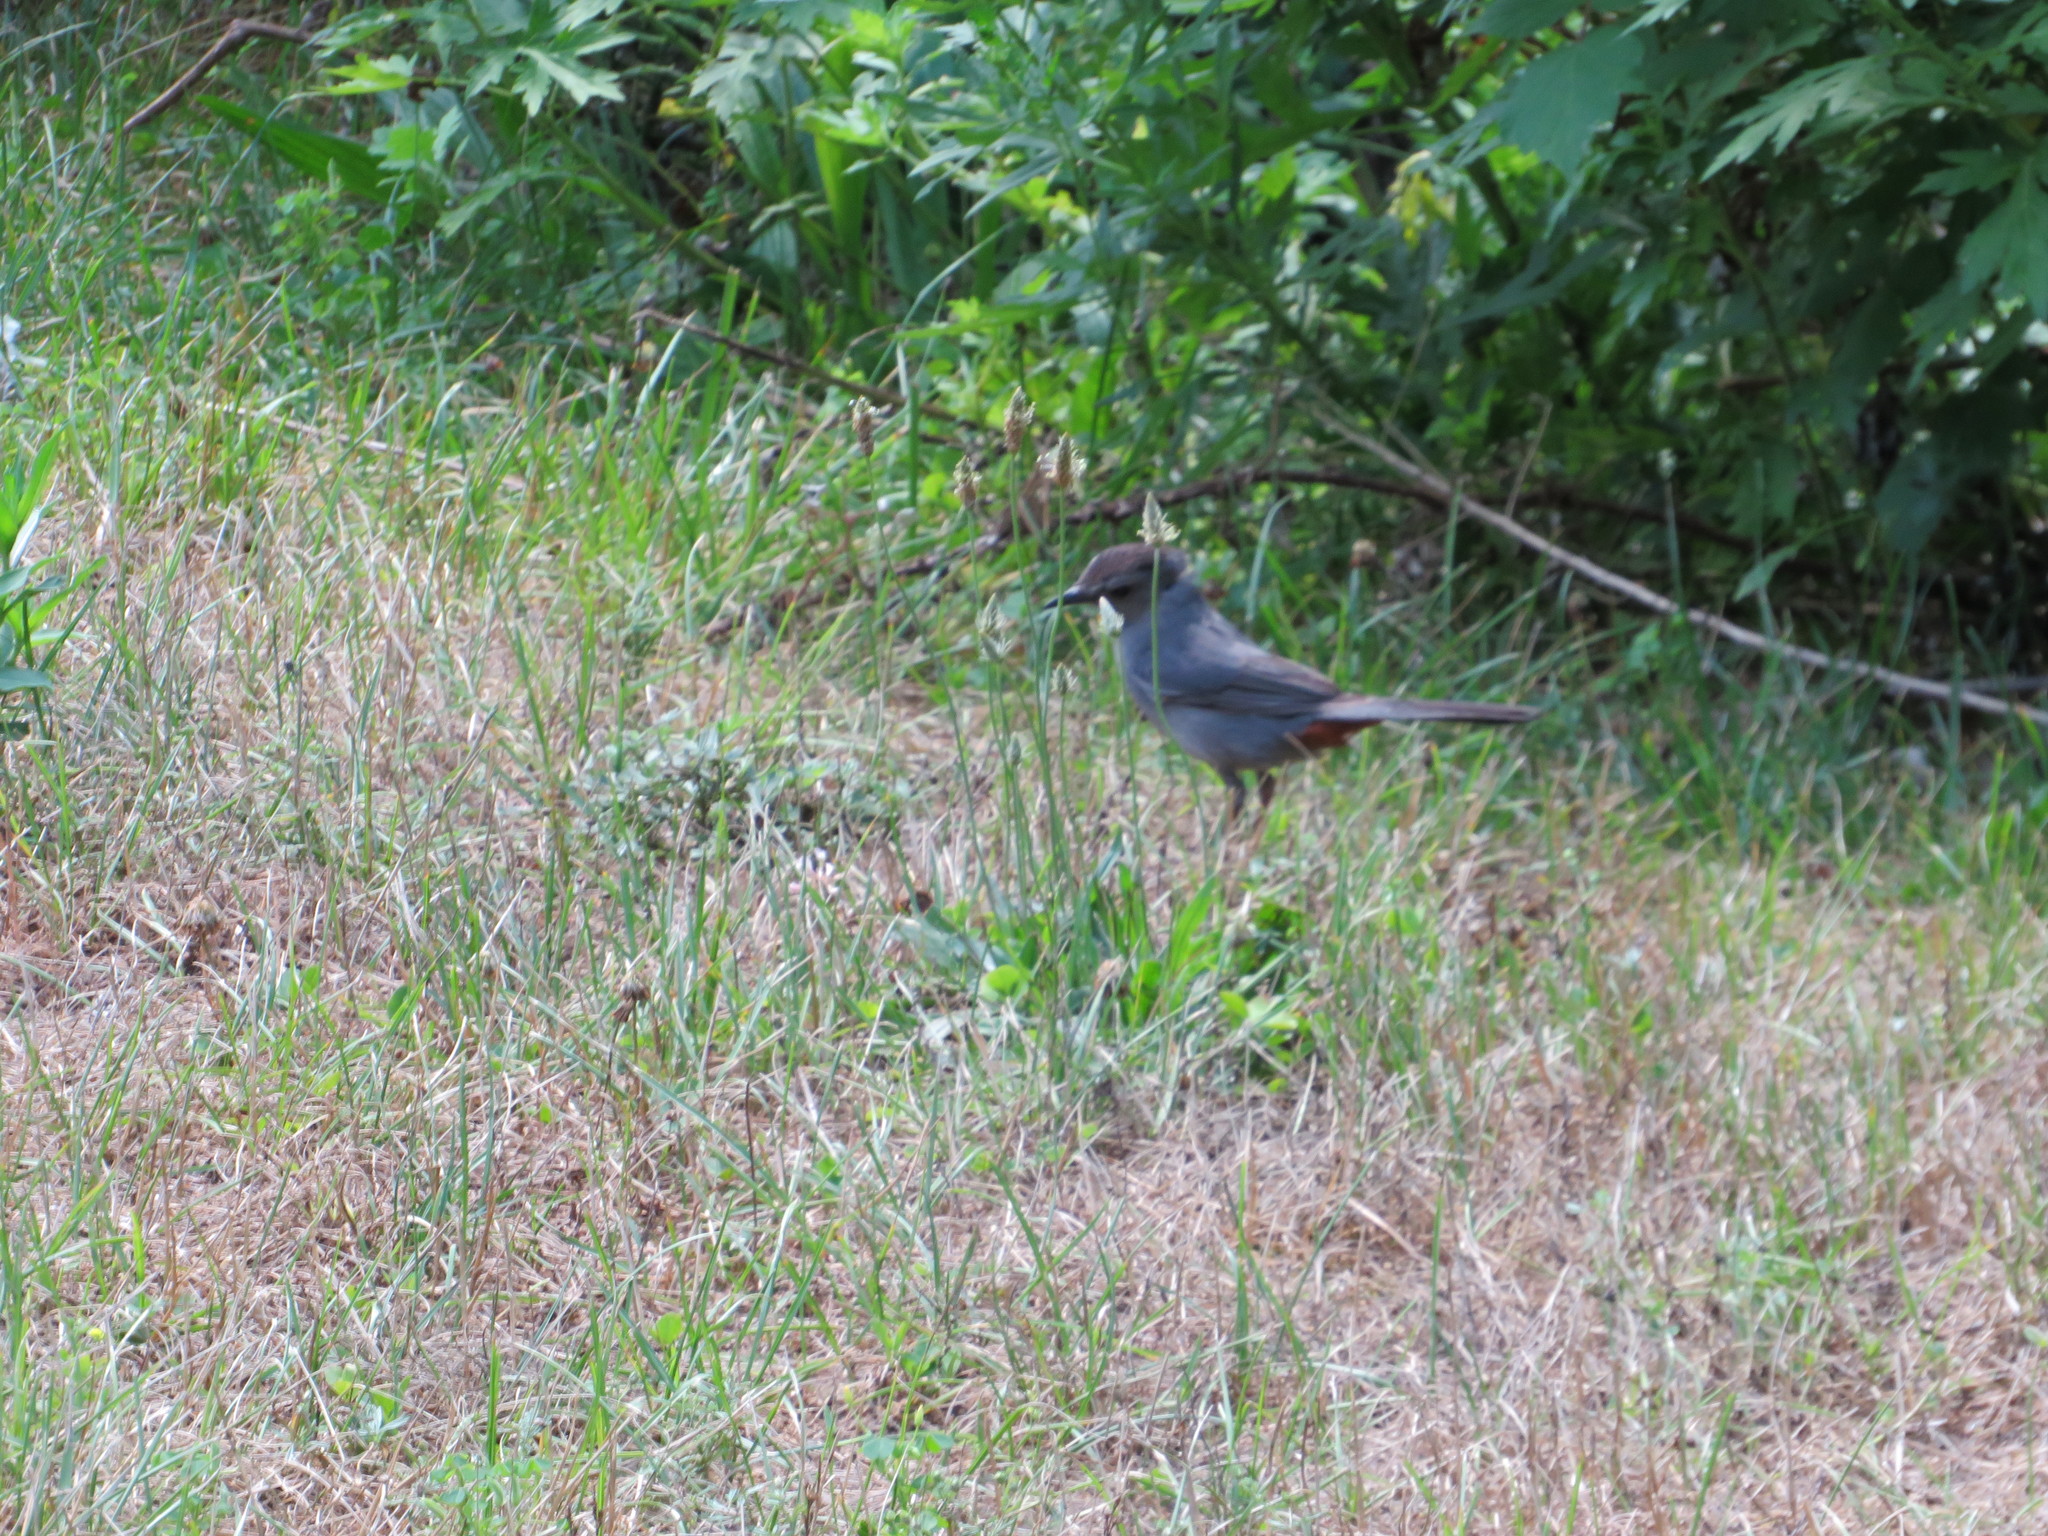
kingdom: Animalia
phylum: Chordata
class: Aves
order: Passeriformes
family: Mimidae
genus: Dumetella
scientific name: Dumetella carolinensis
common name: Gray catbird
